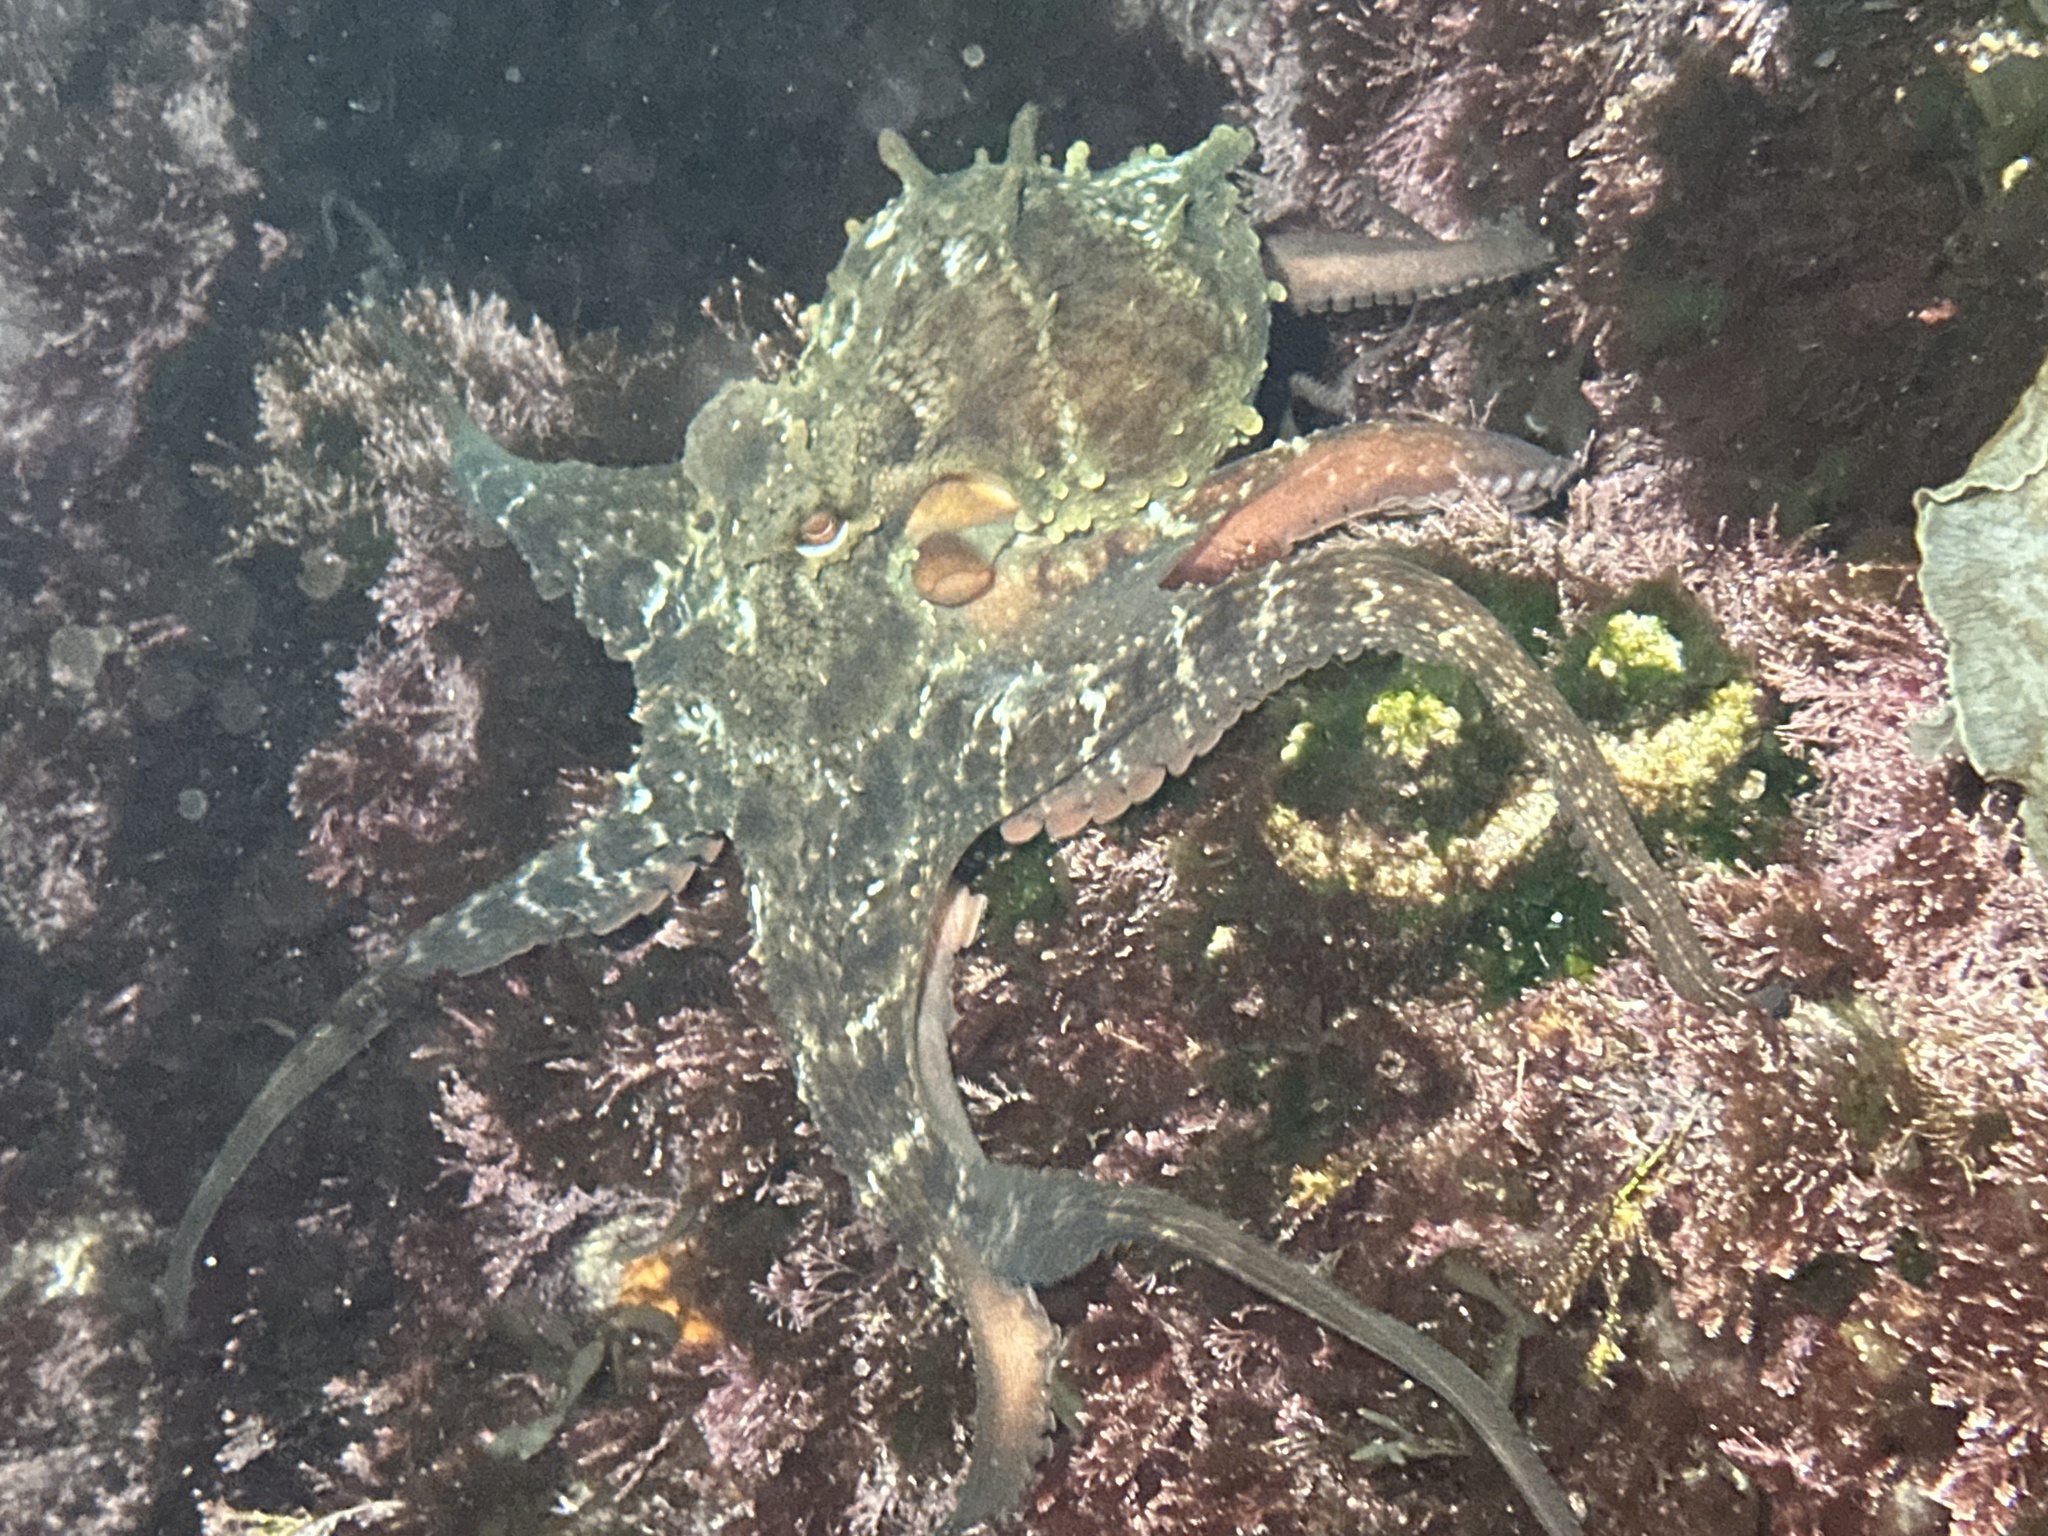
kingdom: Animalia
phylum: Mollusca
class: Cephalopoda
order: Octopoda
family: Octopodidae
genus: Octopus
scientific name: Octopus tetricus
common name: Sydney octopus
